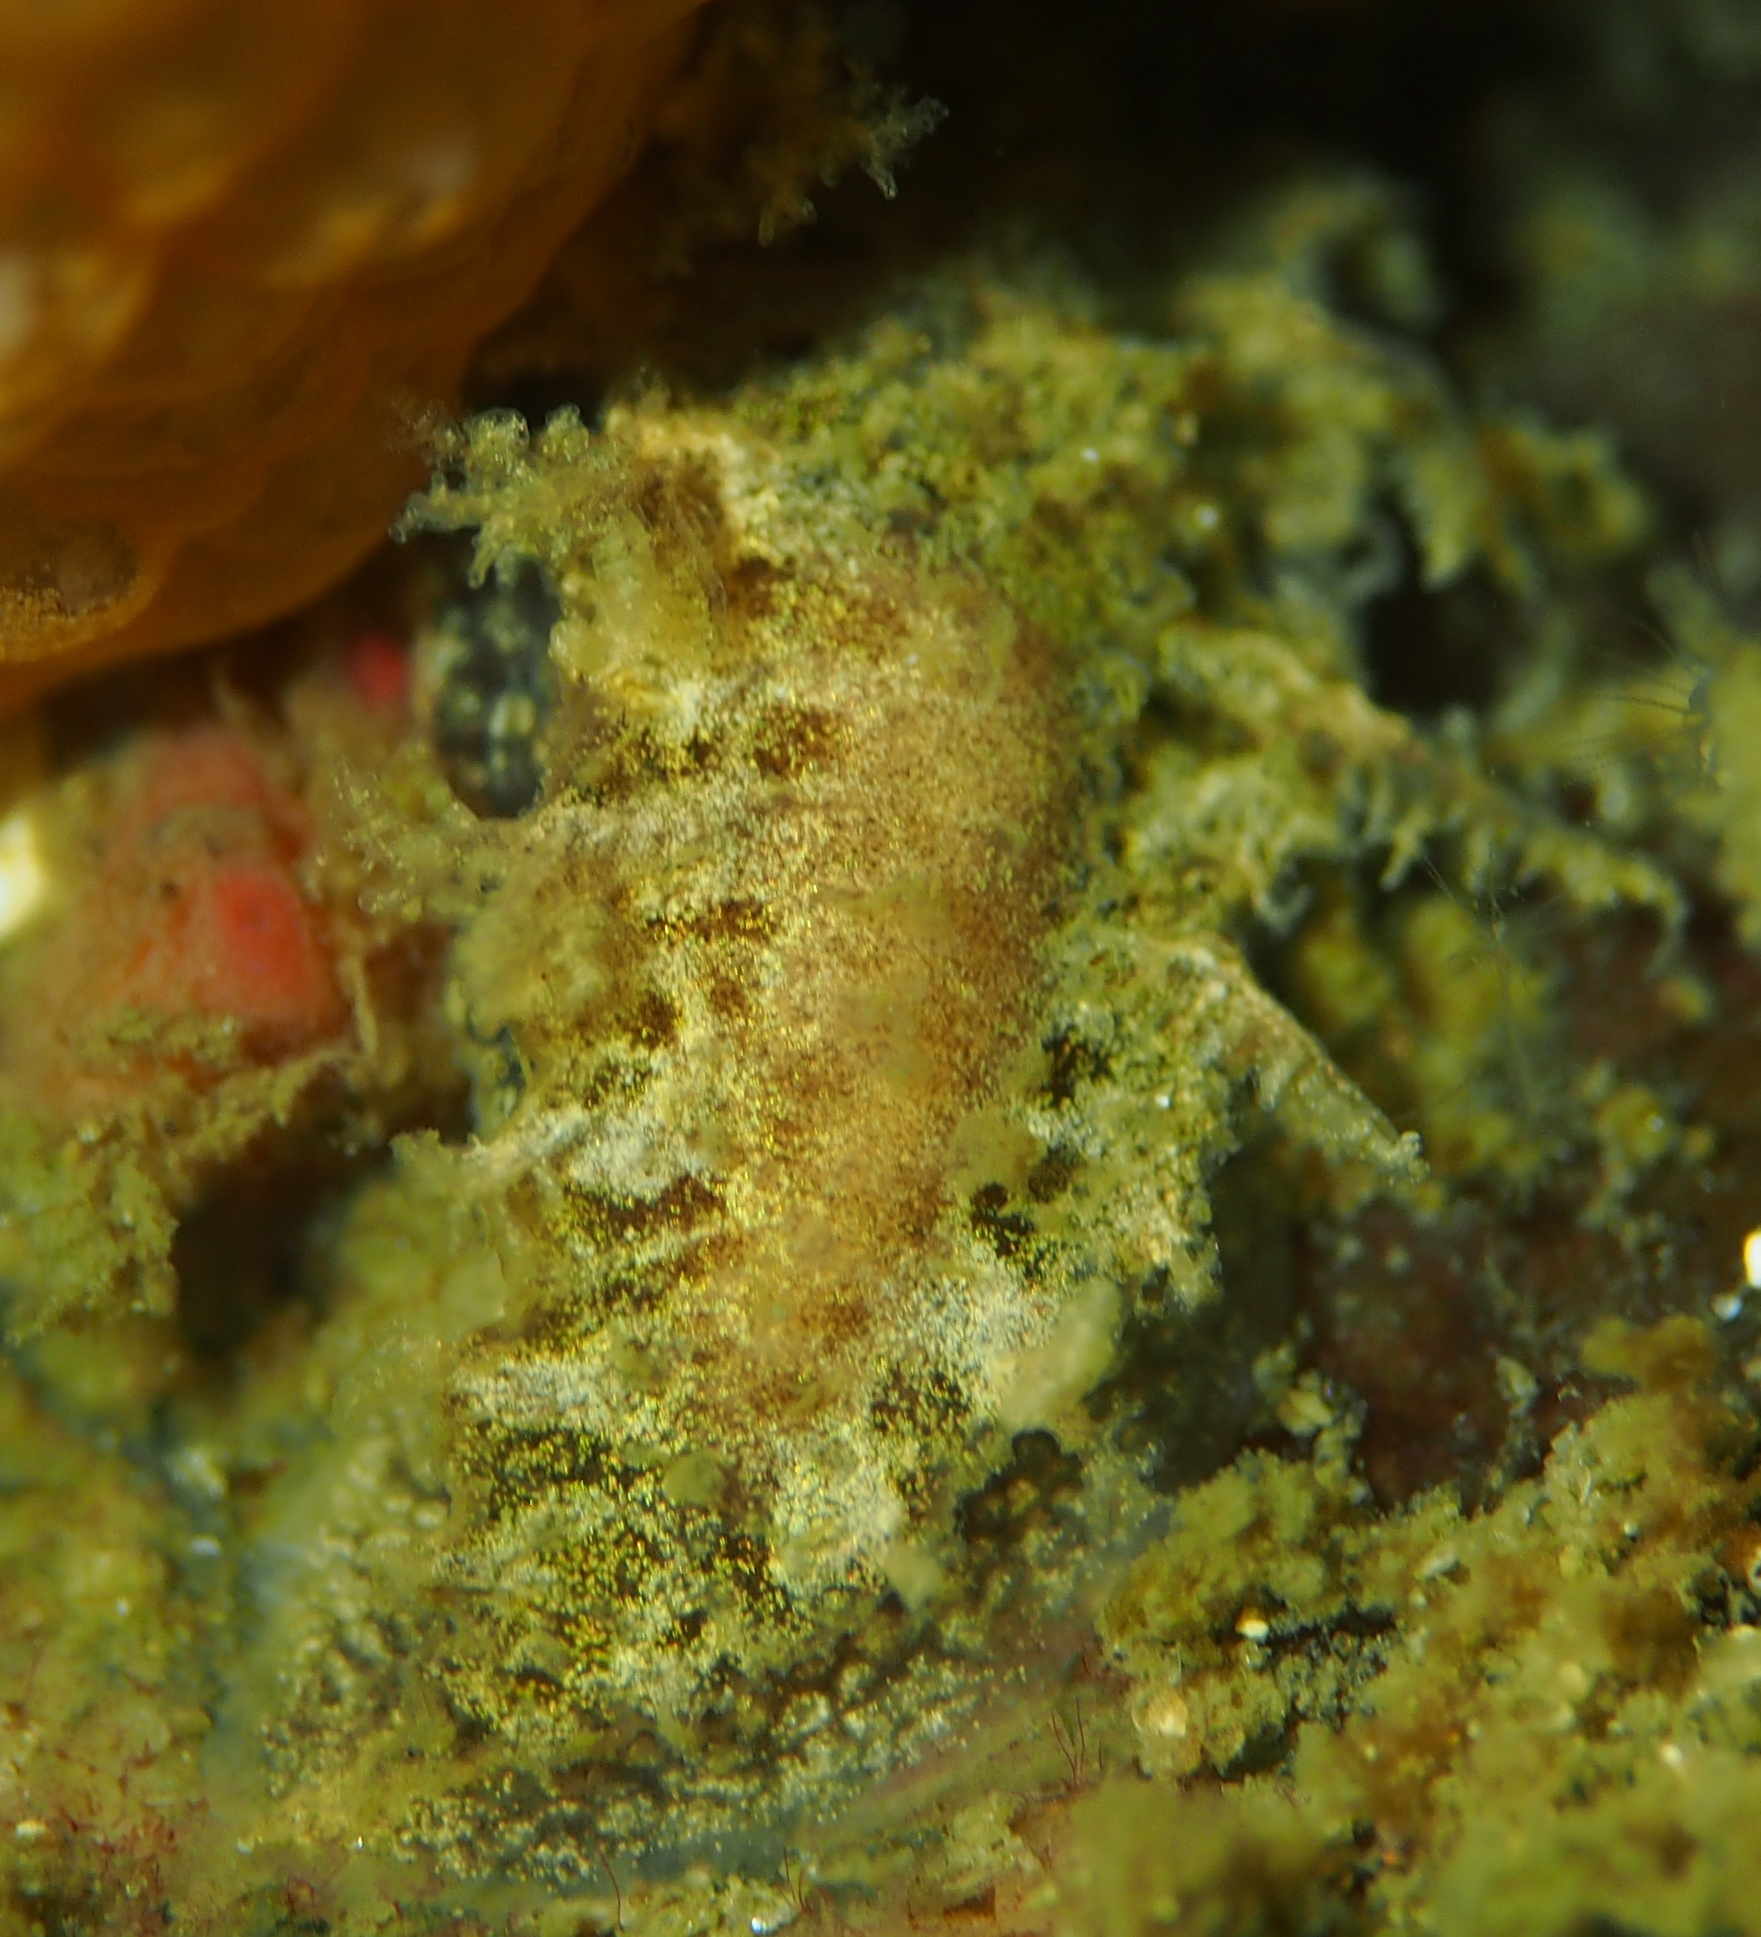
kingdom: Animalia
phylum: Mollusca
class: Gastropoda
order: Nudibranchia
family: Tritoniidae
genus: Duvaucelia
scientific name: Duvaucelia plebeia
